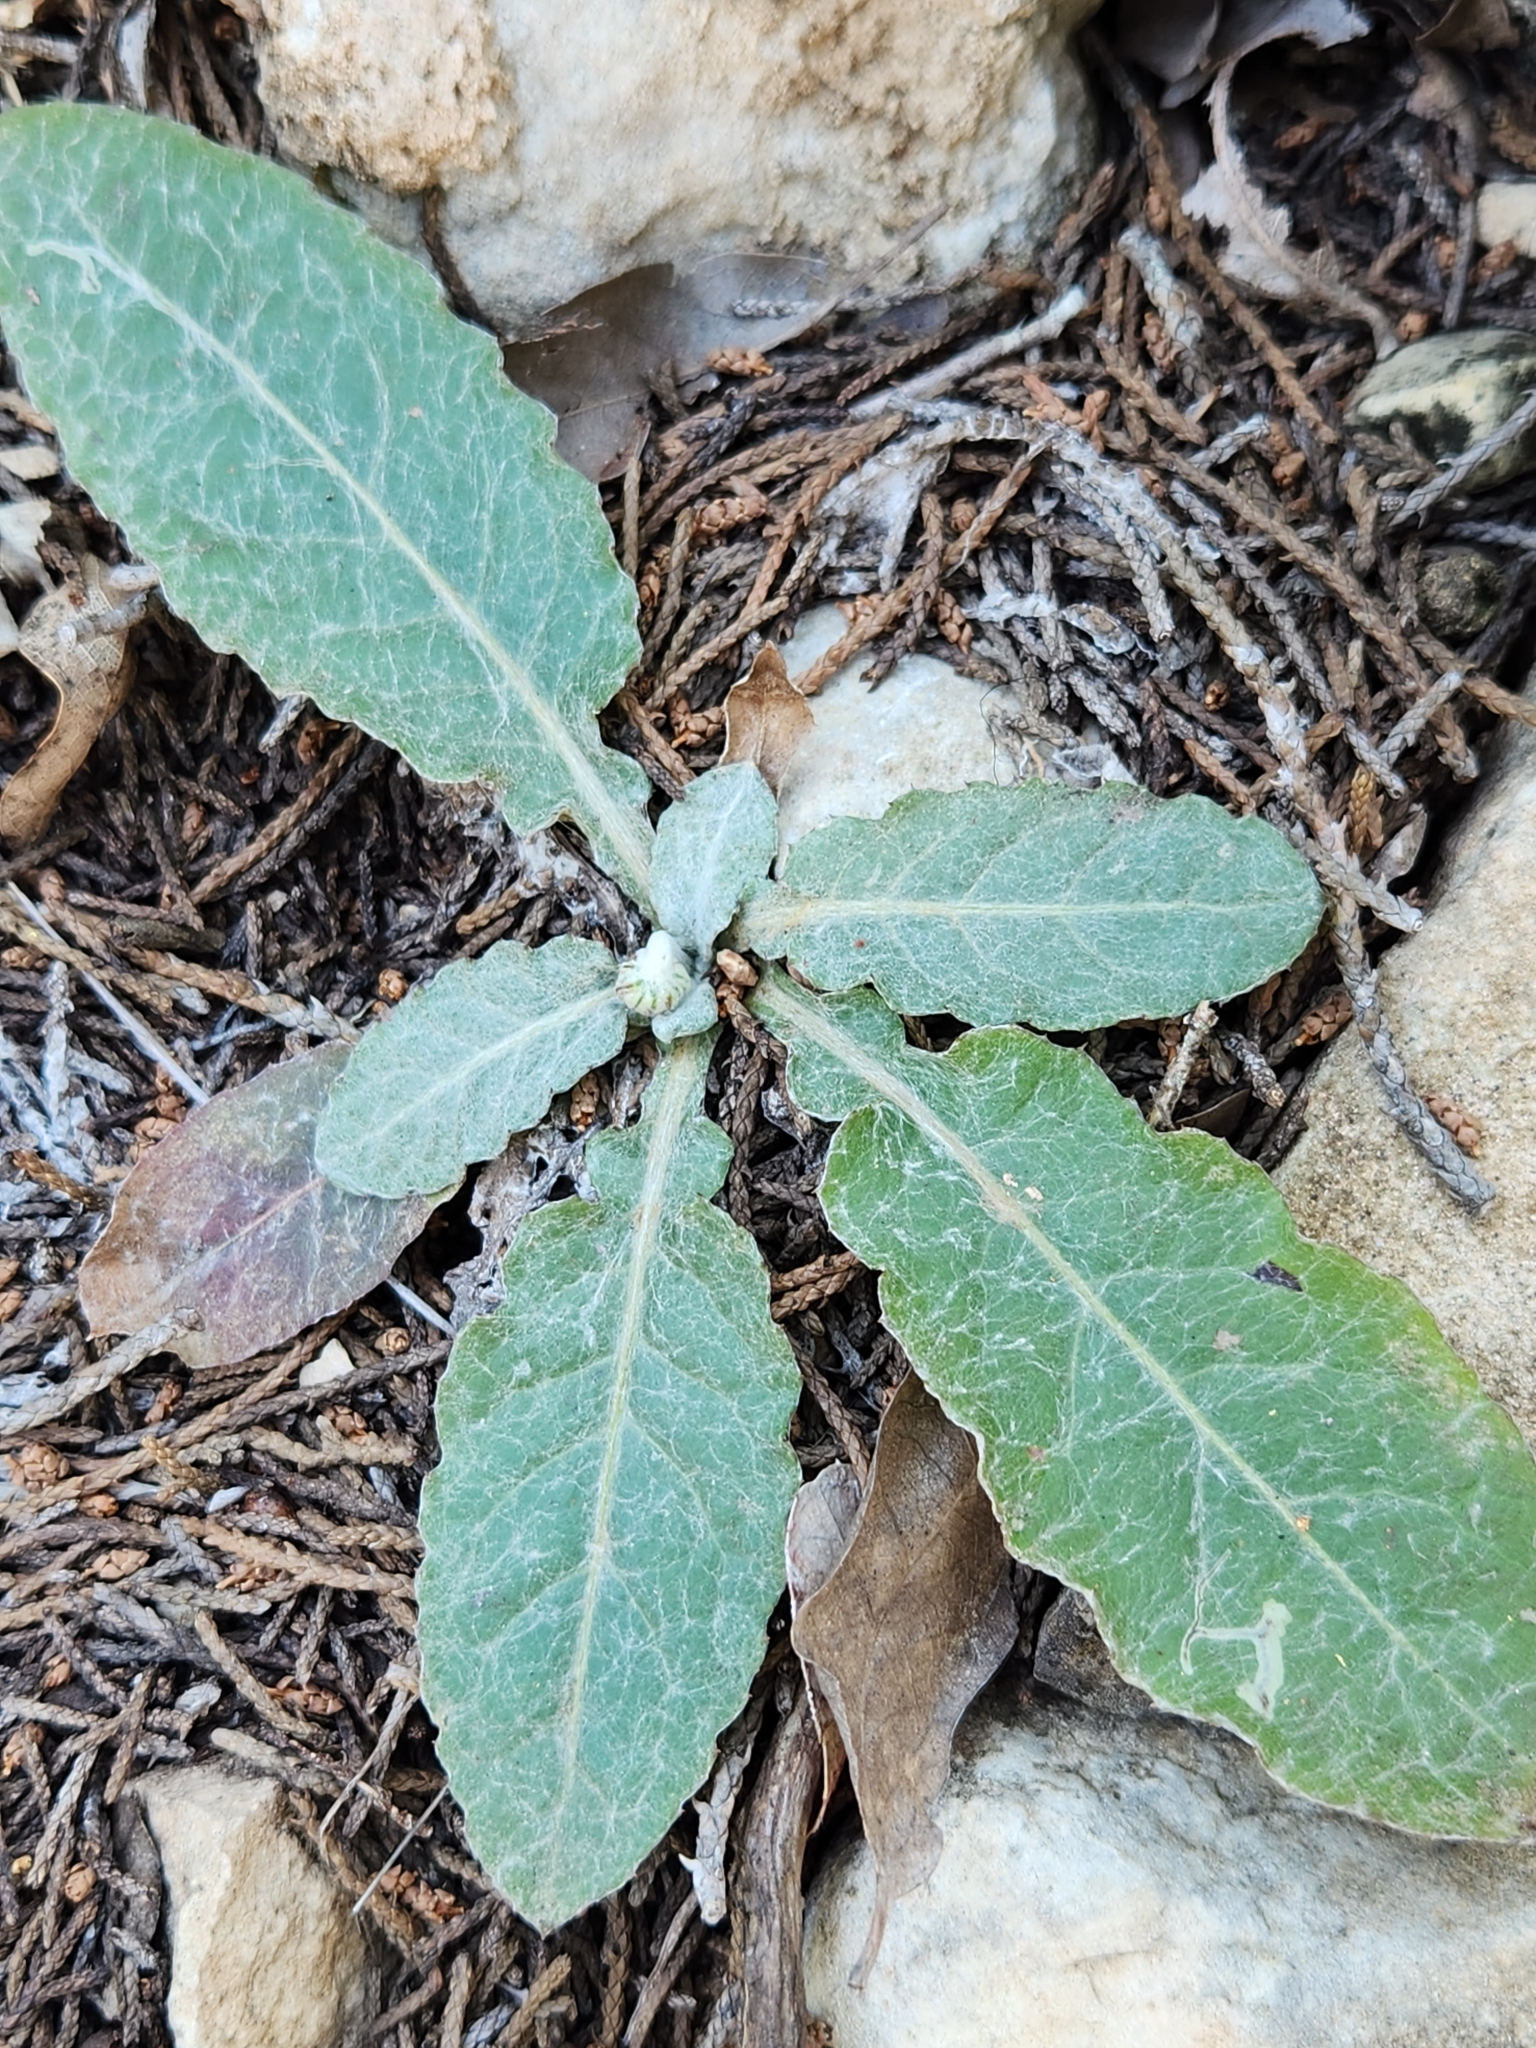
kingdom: Plantae
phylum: Tracheophyta
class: Magnoliopsida
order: Asterales
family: Asteraceae
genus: Chaptalia
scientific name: Chaptalia texana
